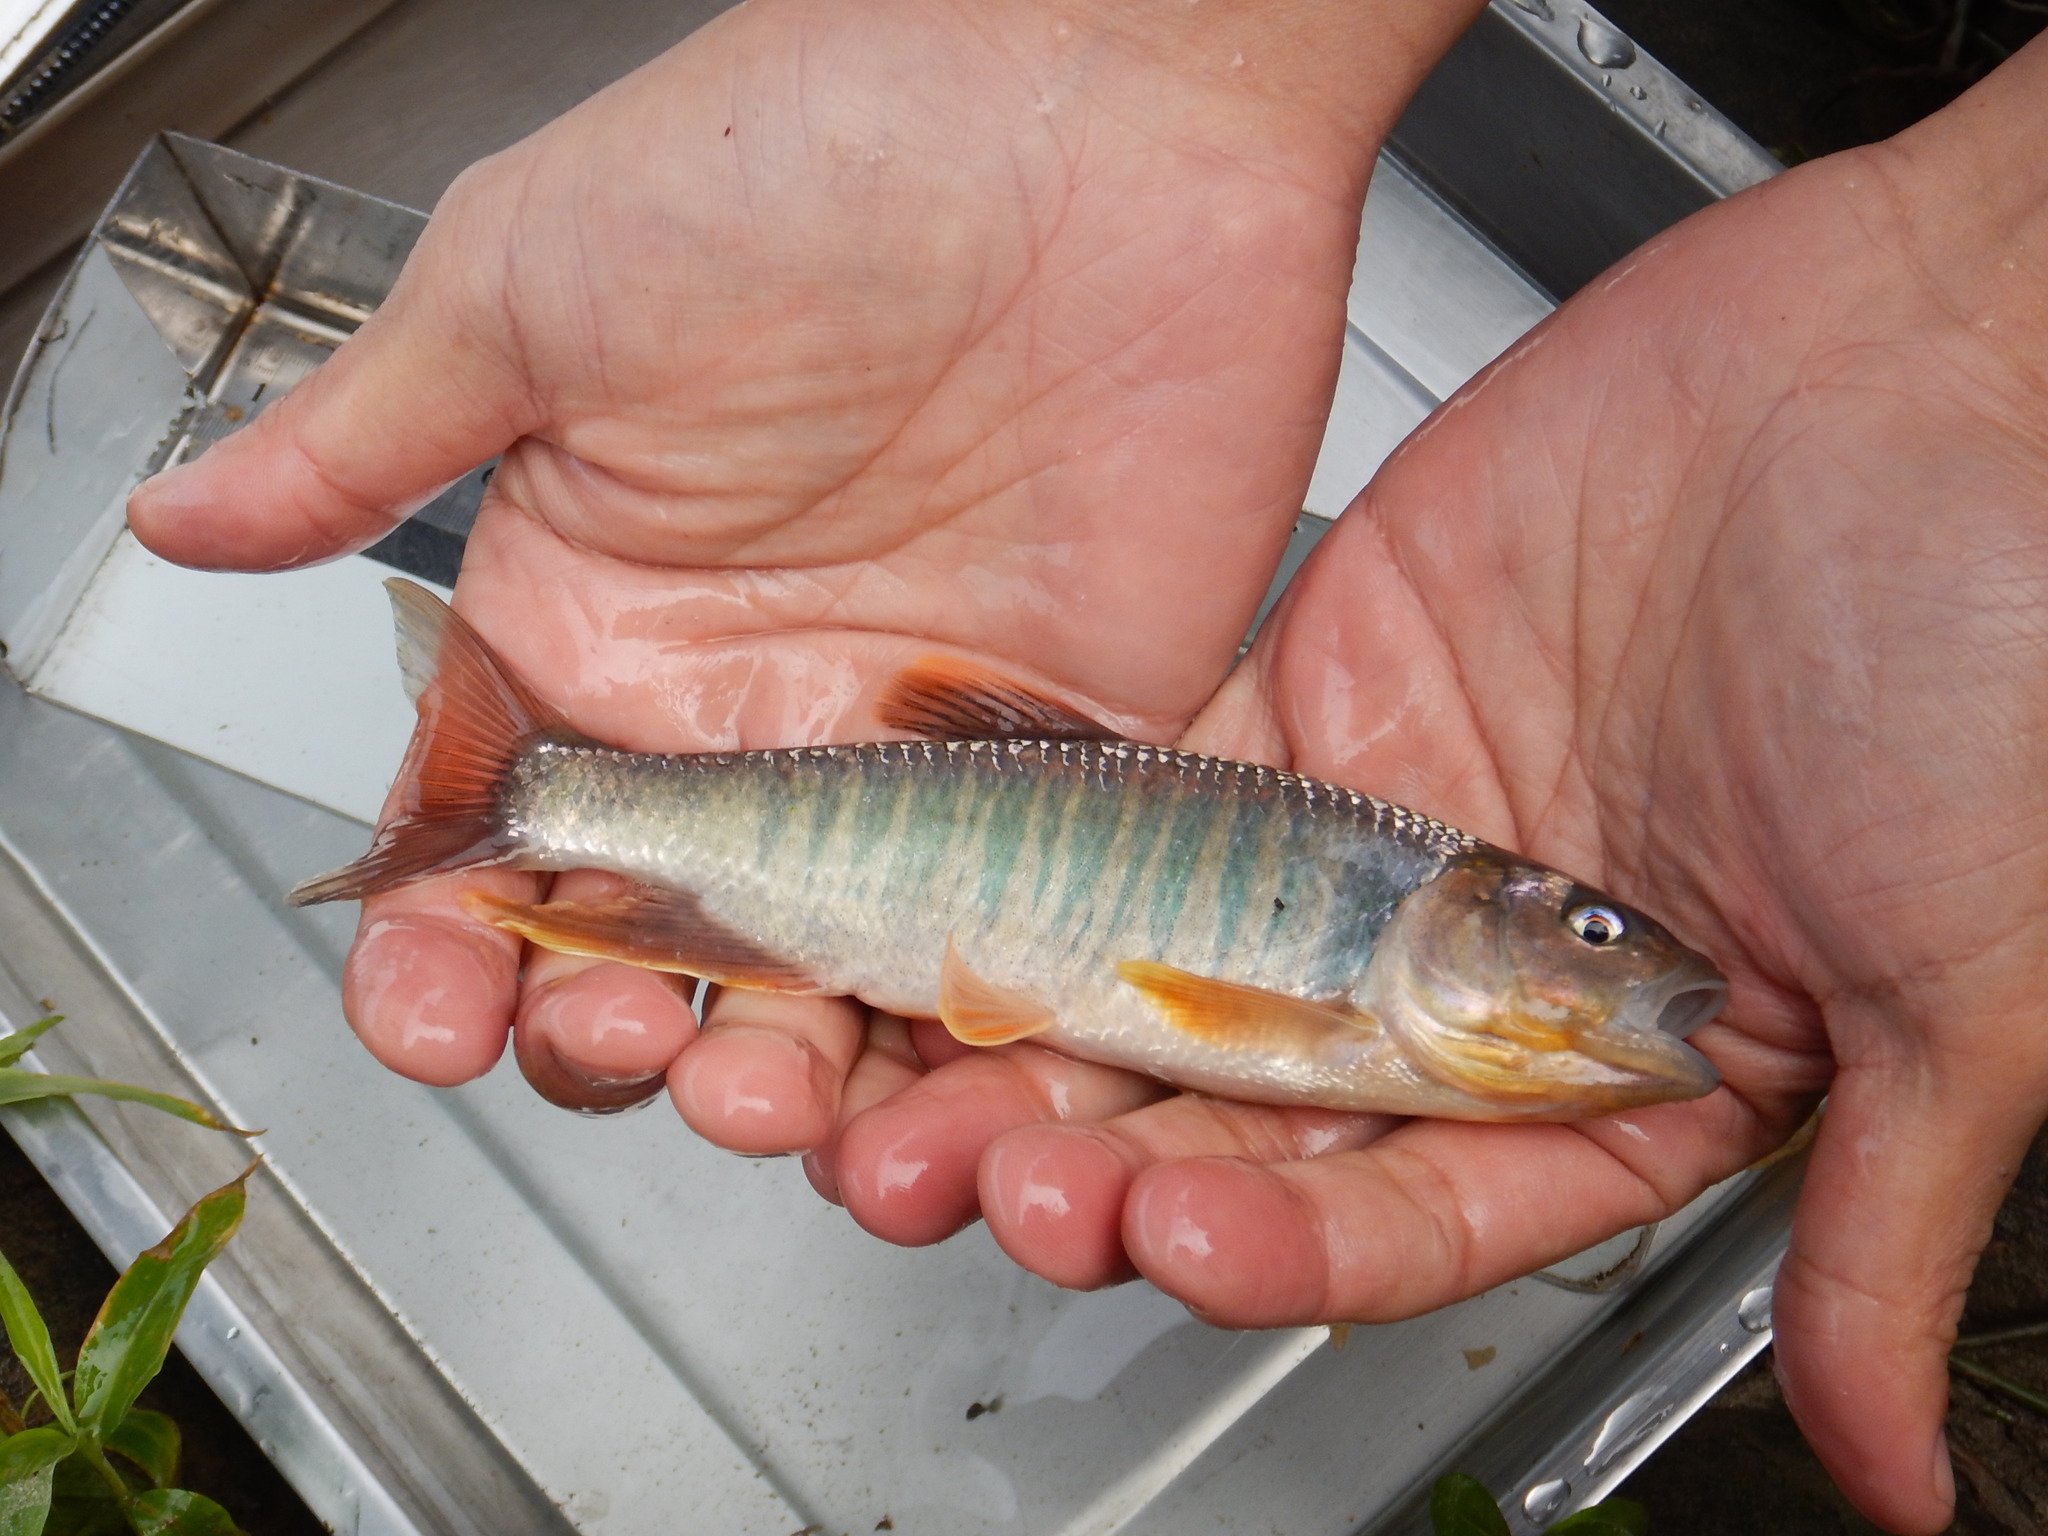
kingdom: Animalia
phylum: Chordata
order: Cypriniformes
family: Cyprinidae
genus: Opsariichthys
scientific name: Opsariichthys pachycephalus
